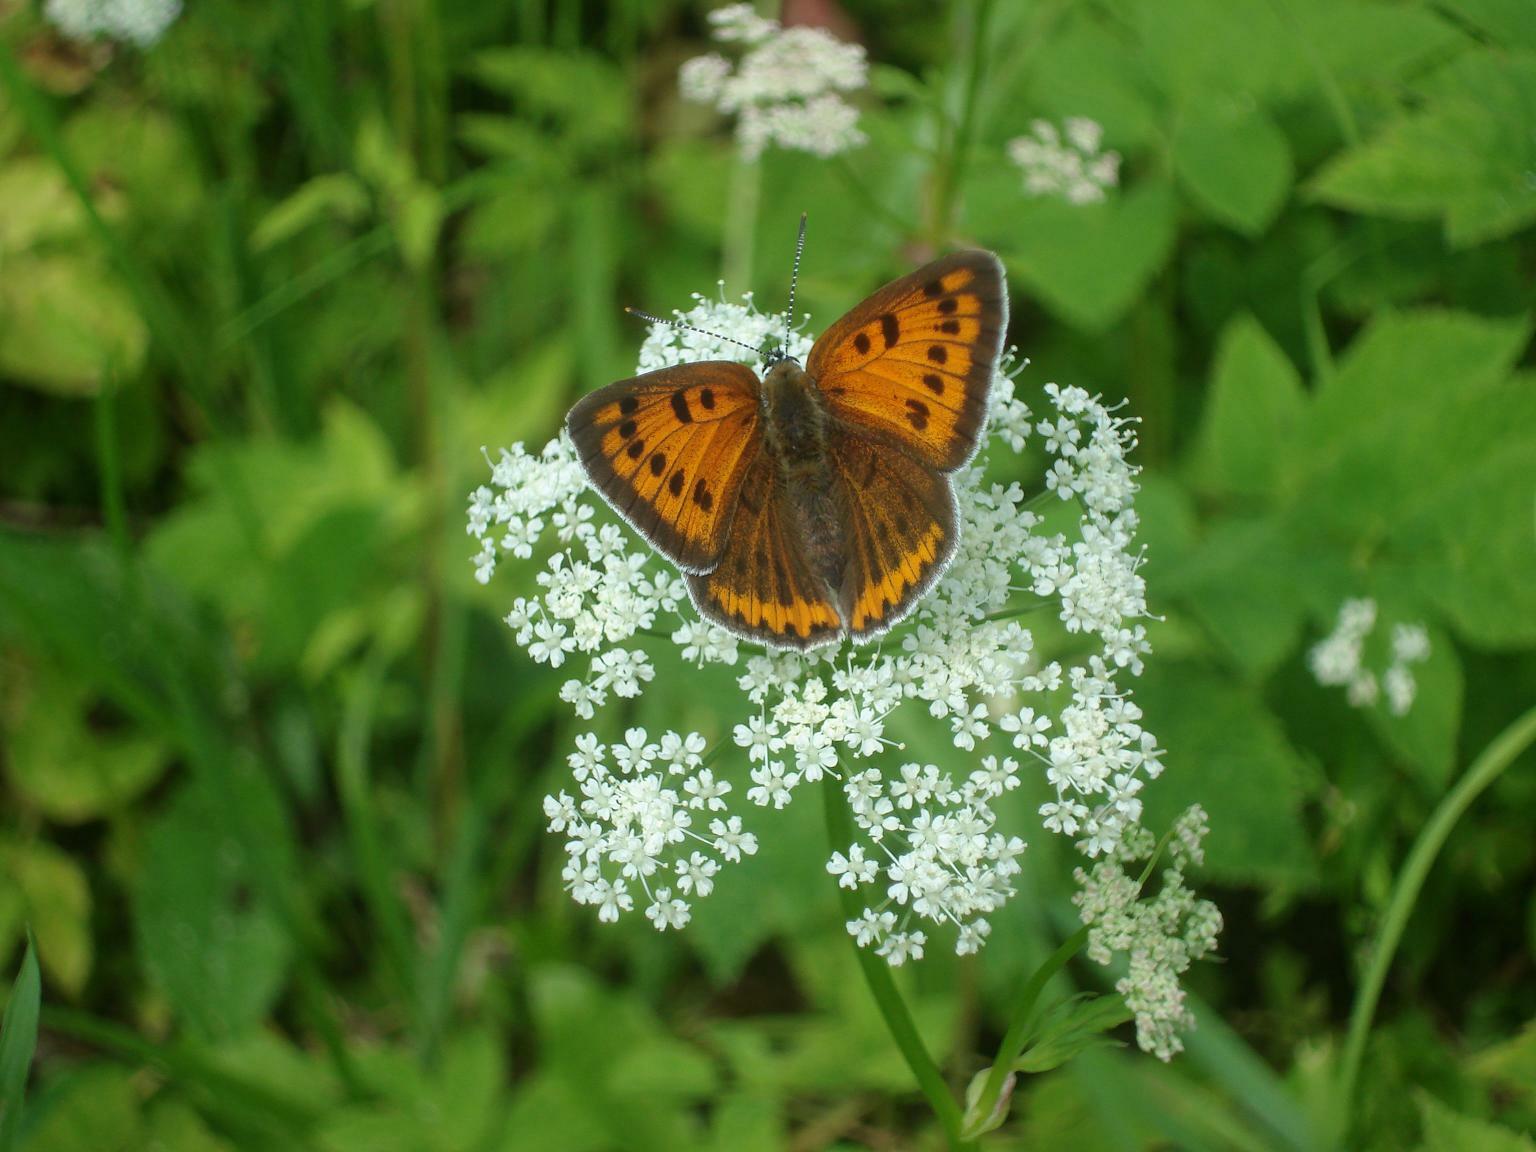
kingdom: Animalia
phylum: Arthropoda
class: Insecta
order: Lepidoptera
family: Lycaenidae
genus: Lycaena
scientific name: Lycaena dispar
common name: Large copper
